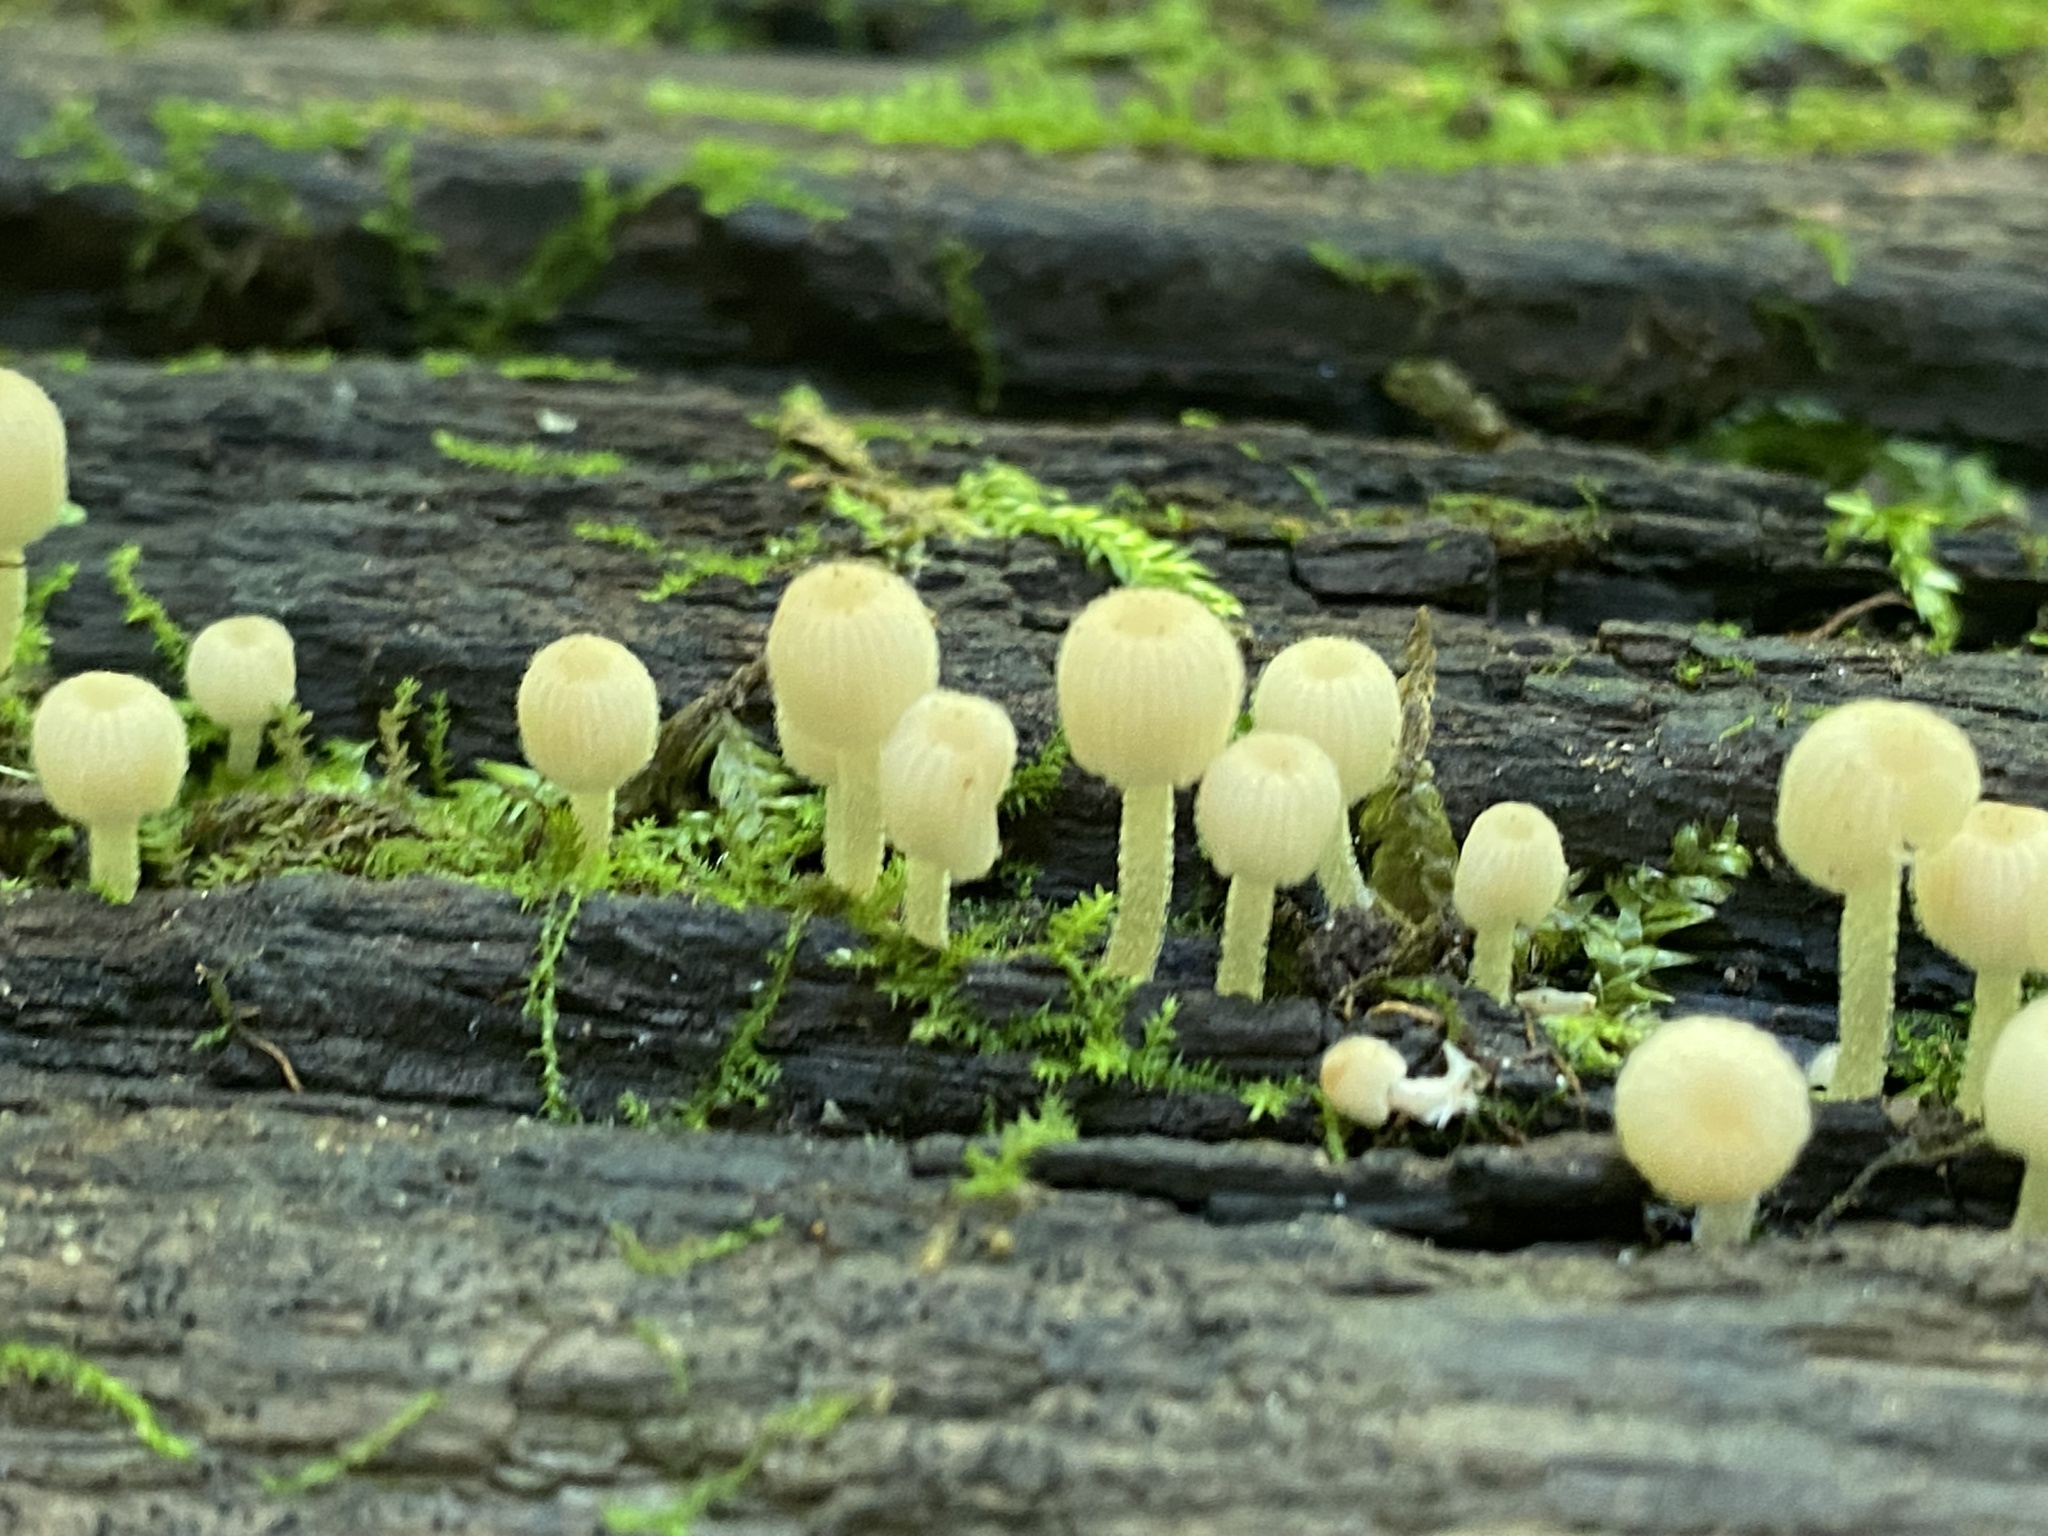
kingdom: Fungi
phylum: Basidiomycota
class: Agaricomycetes
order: Agaricales
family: Psathyrellaceae
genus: Coprinellus
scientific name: Coprinellus disseminatus
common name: Fairies' bonnets
